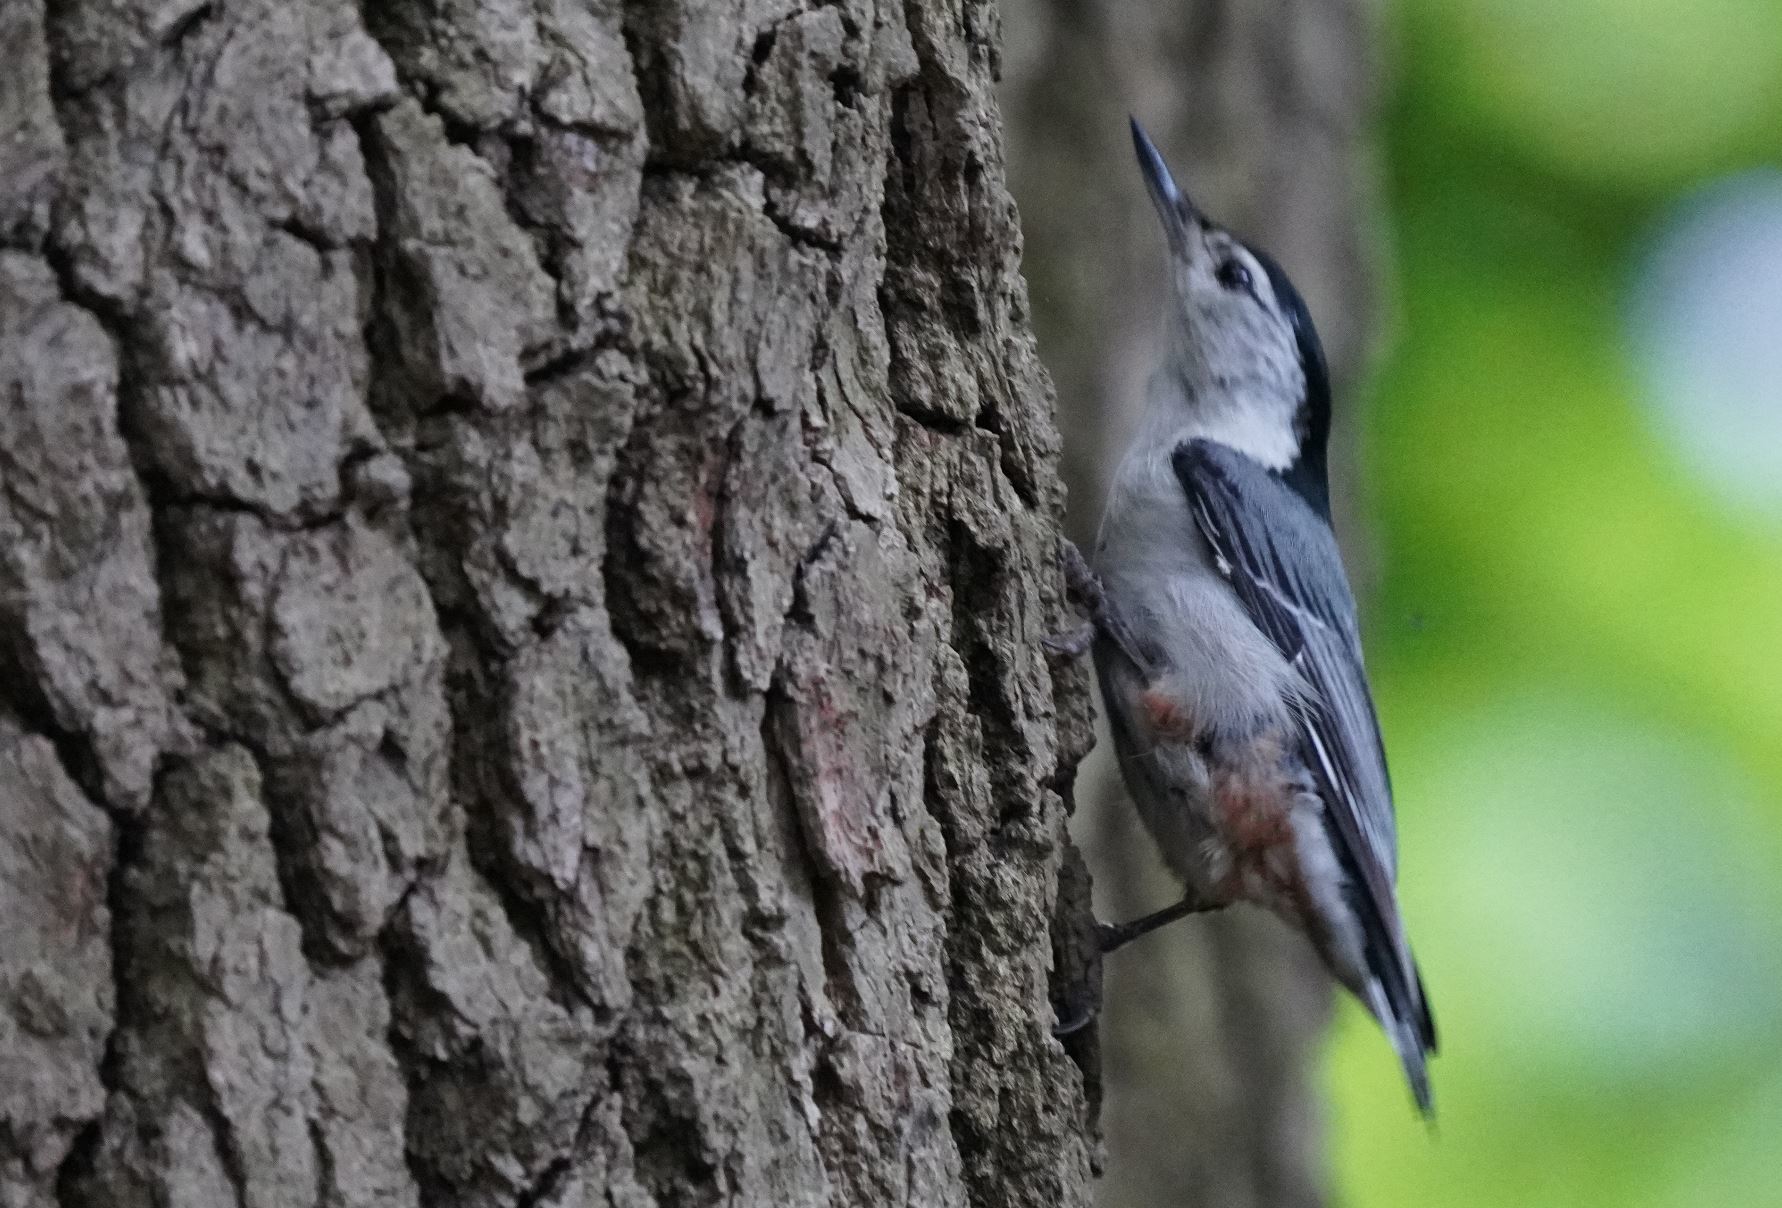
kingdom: Animalia
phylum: Chordata
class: Aves
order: Passeriformes
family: Sittidae
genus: Sitta
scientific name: Sitta carolinensis
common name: White-breasted nuthatch
